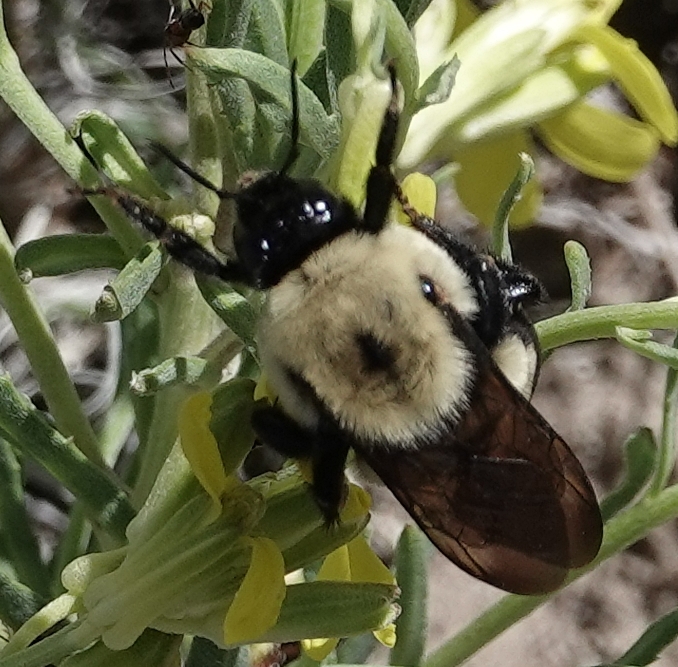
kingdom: Animalia
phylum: Arthropoda
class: Insecta
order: Hymenoptera
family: Apidae
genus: Bombus
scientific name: Bombus griseocollis
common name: Brown-belted bumble bee
